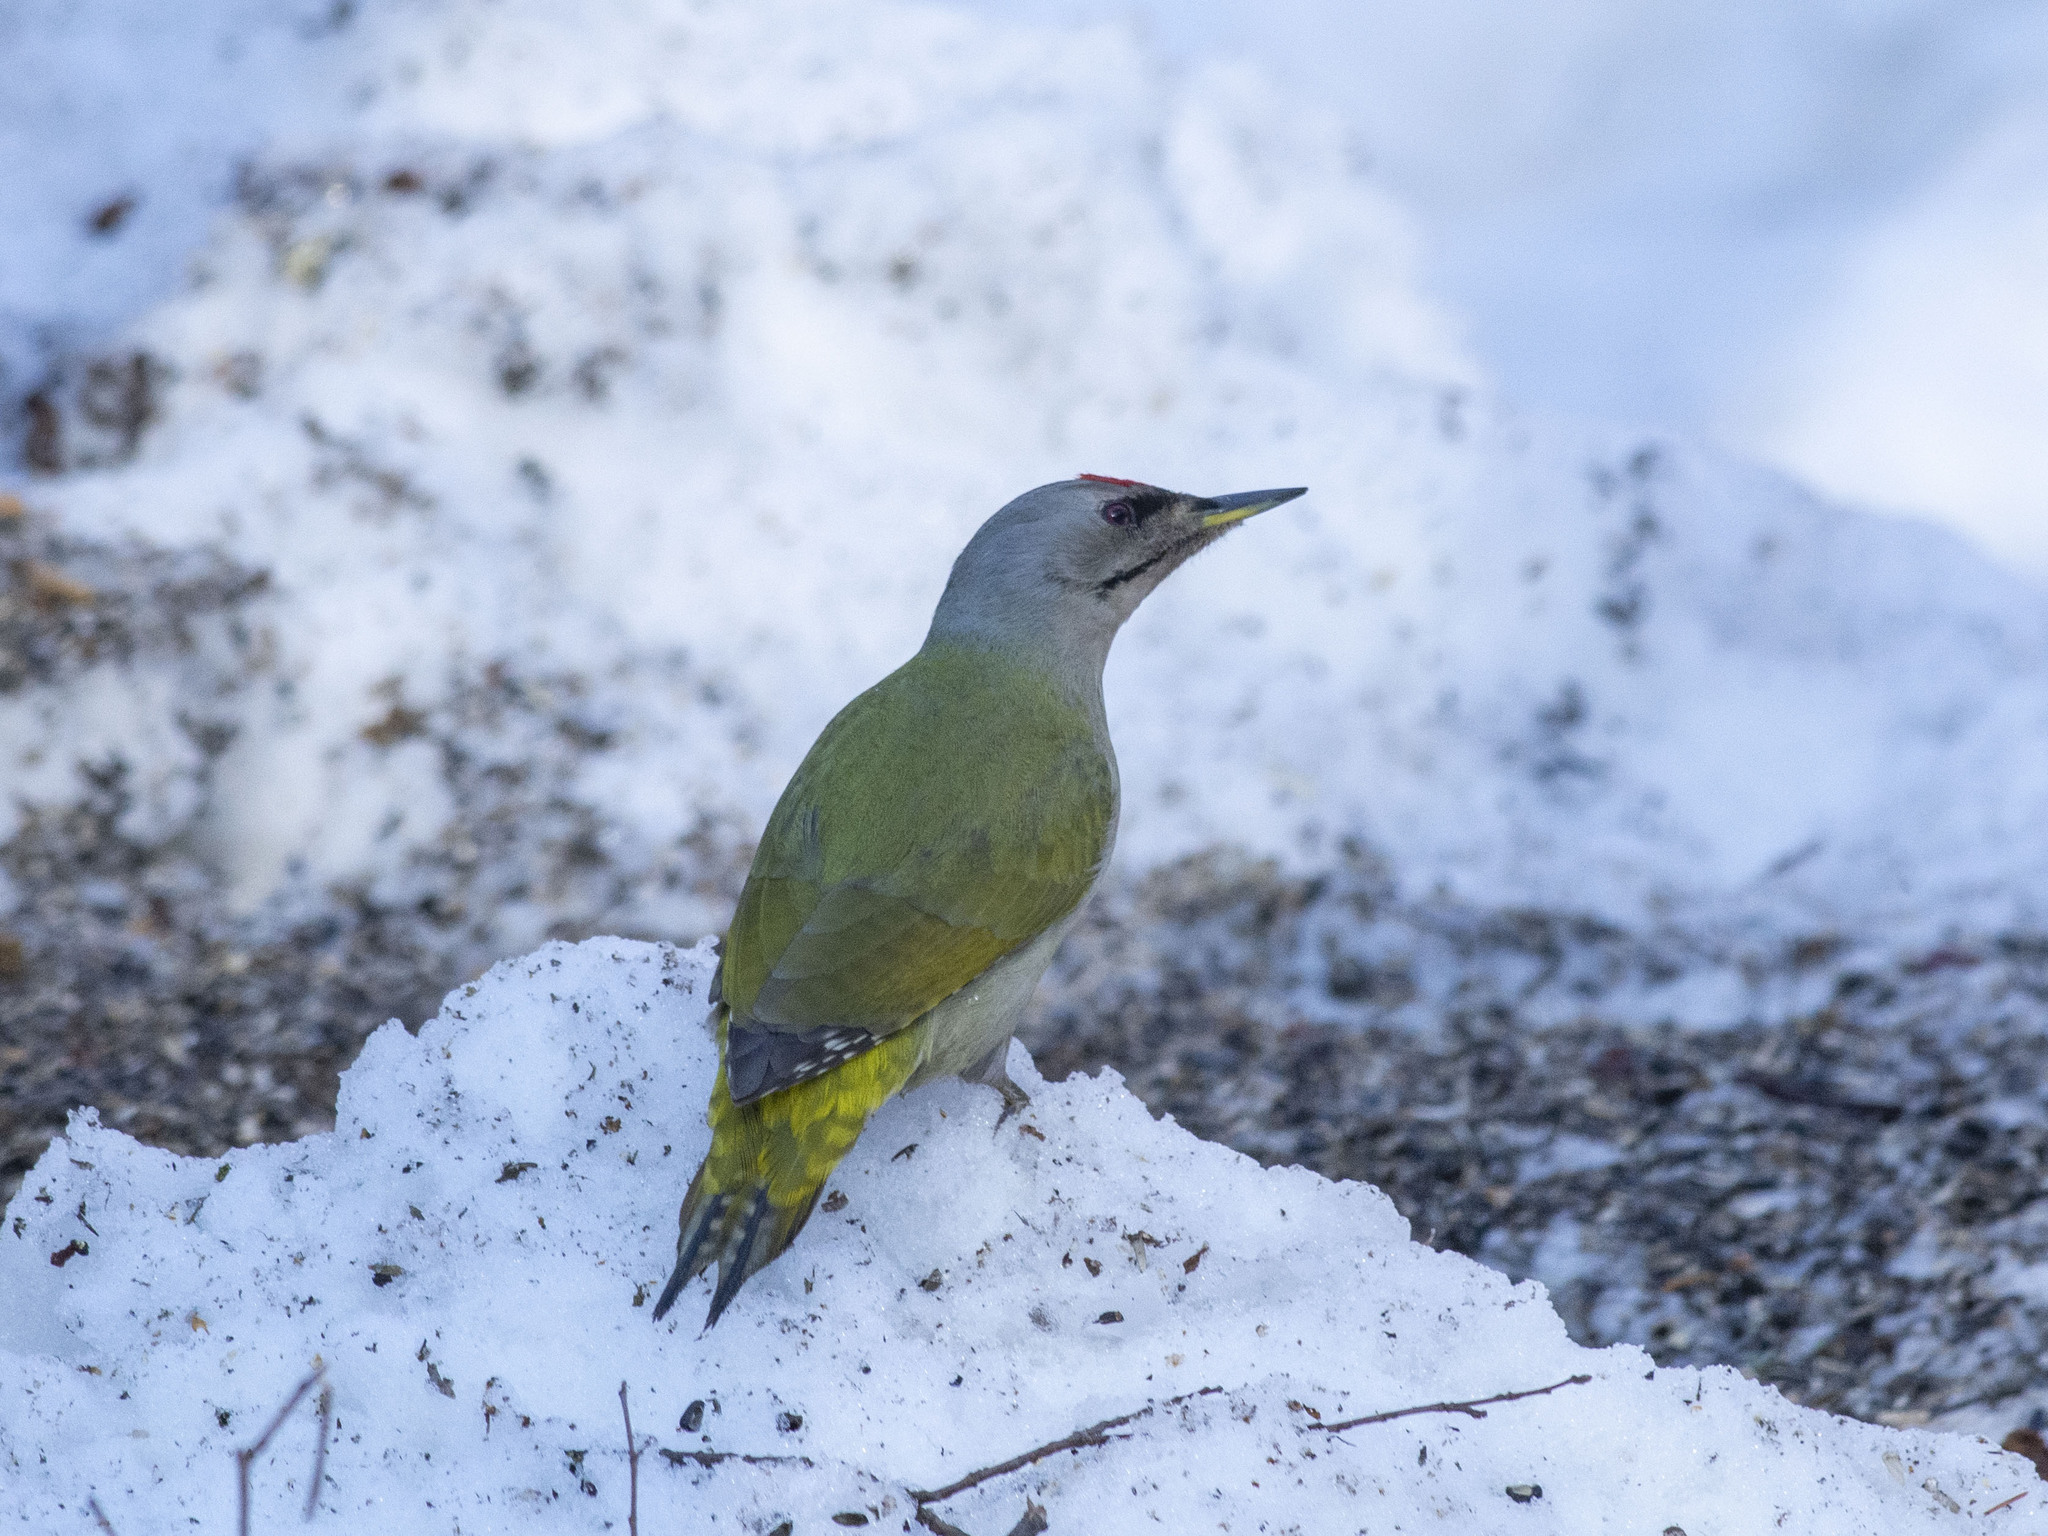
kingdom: Animalia
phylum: Chordata
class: Aves
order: Piciformes
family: Picidae
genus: Picus
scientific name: Picus canus
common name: Grey-headed woodpecker
